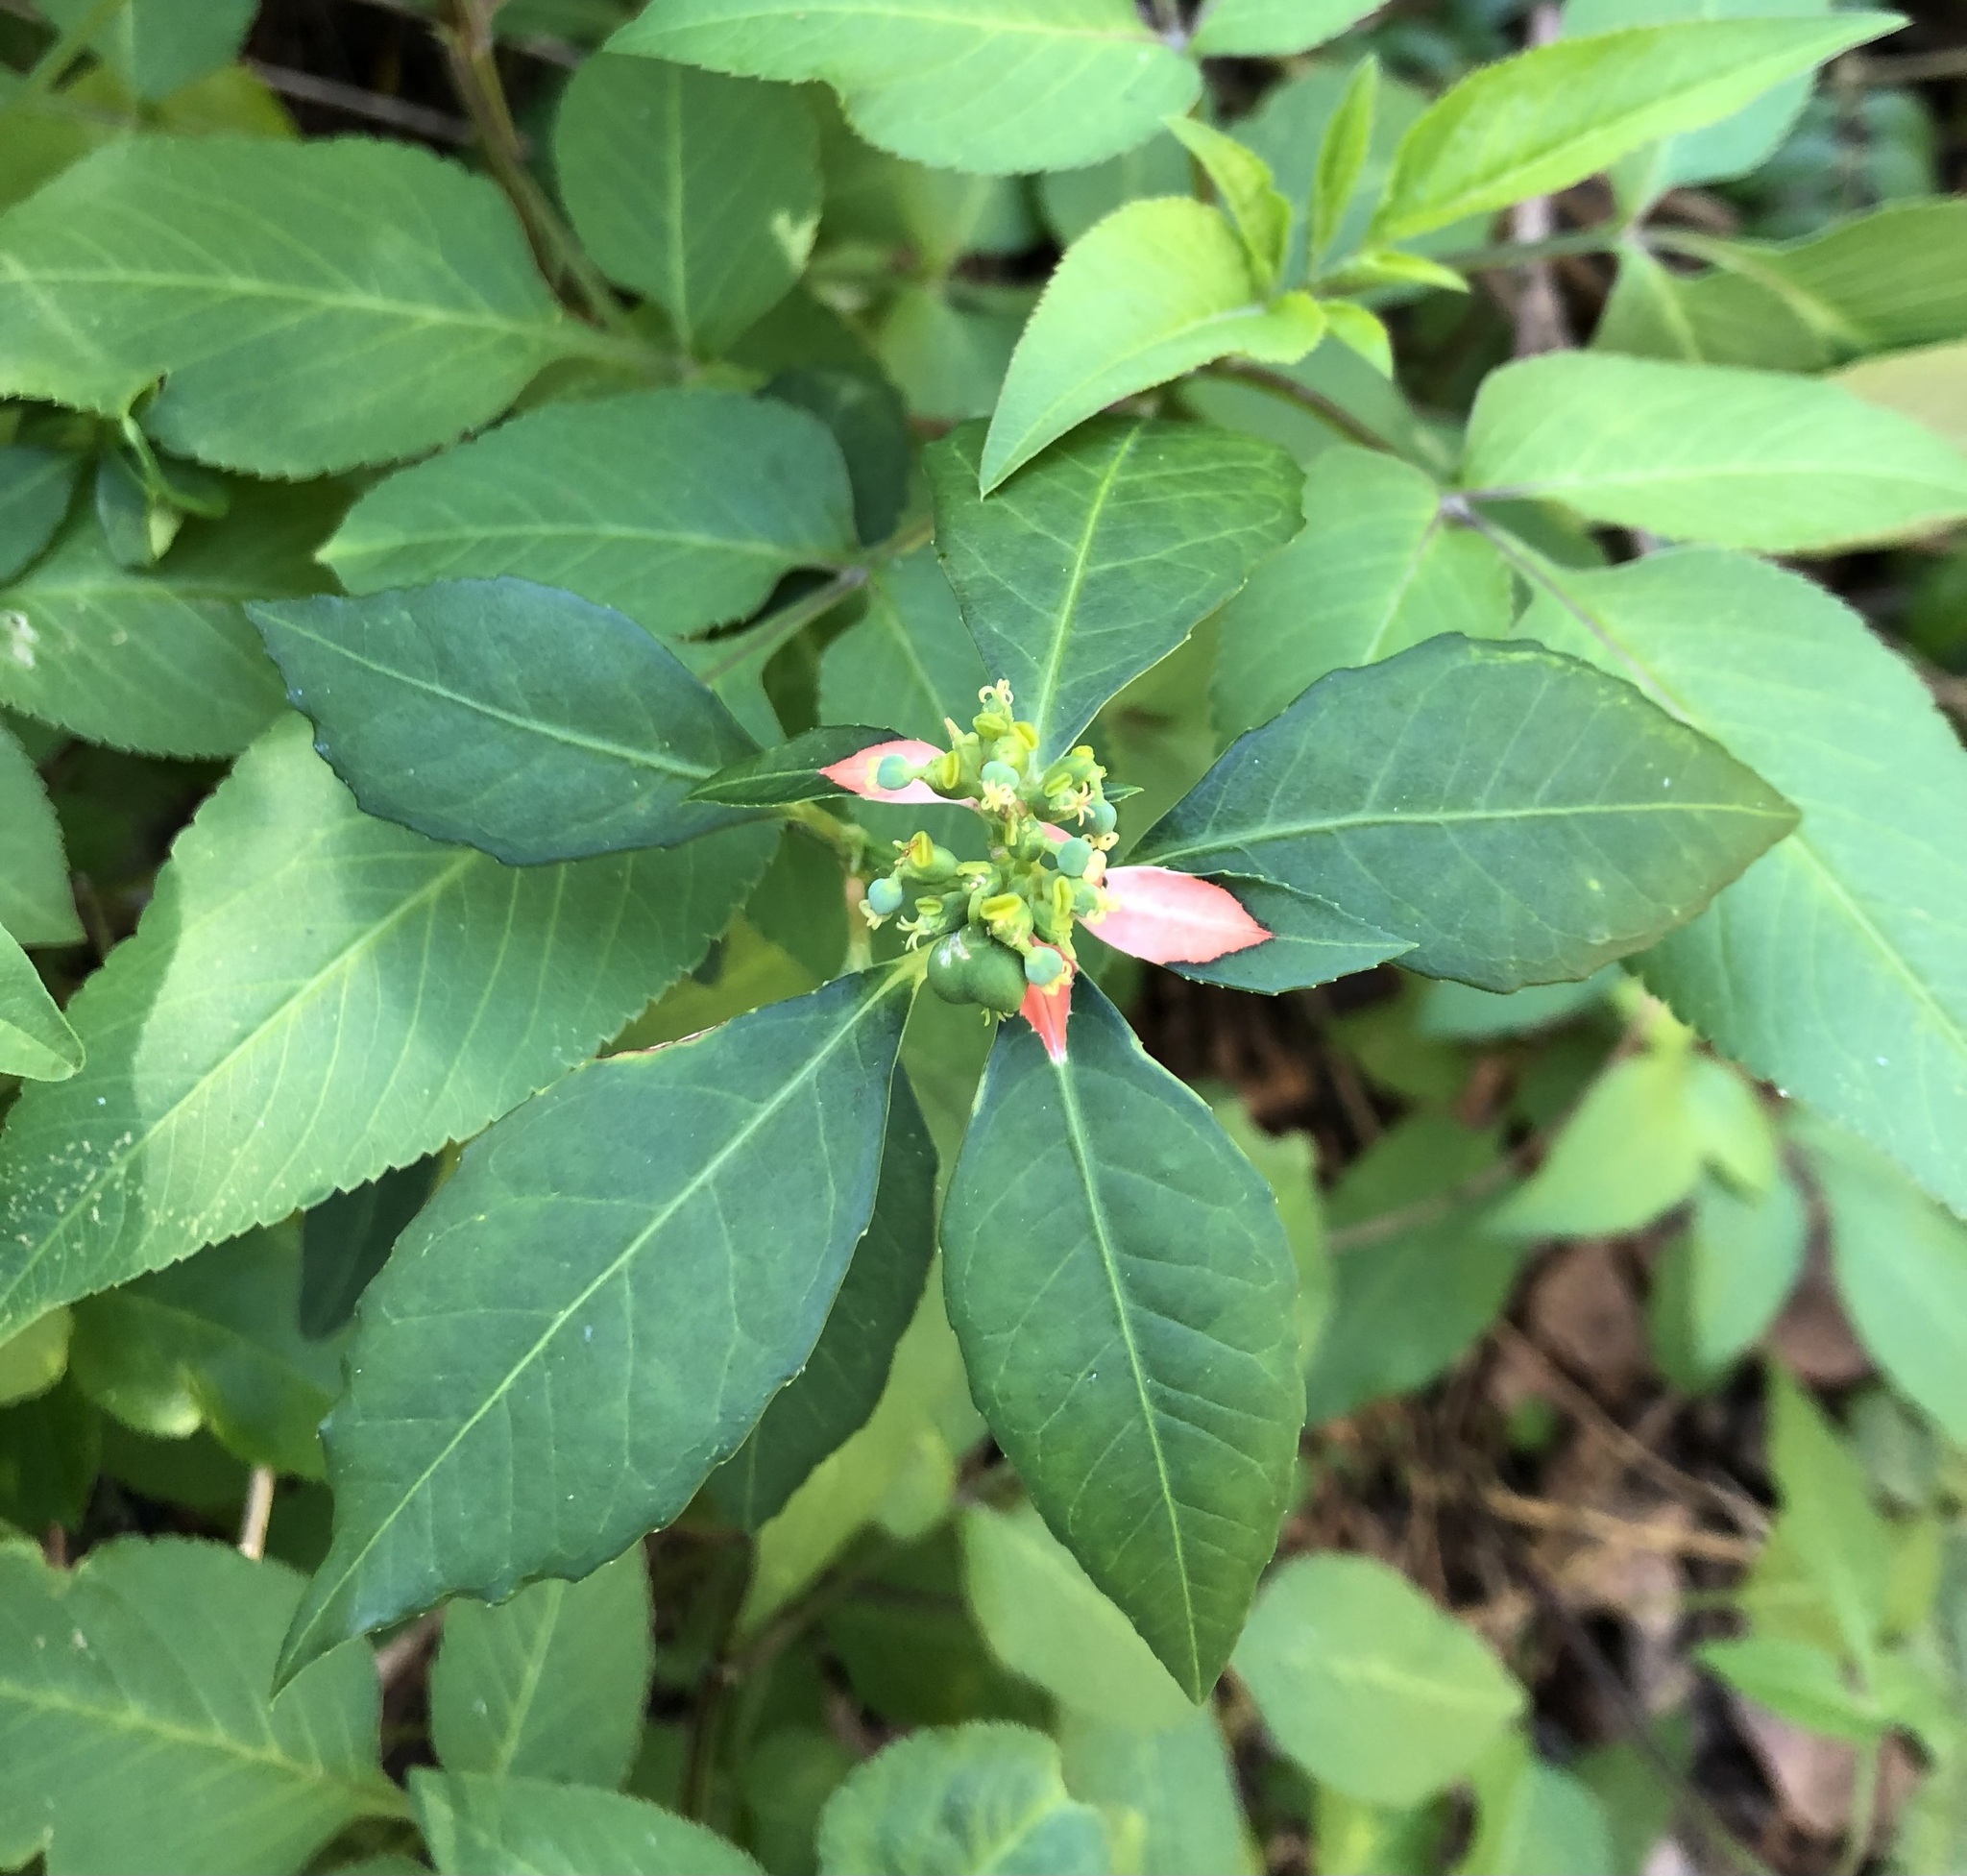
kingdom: Plantae
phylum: Tracheophyta
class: Magnoliopsida
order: Malpighiales
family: Euphorbiaceae
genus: Euphorbia
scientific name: Euphorbia heterophylla
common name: Mexican fireplant
